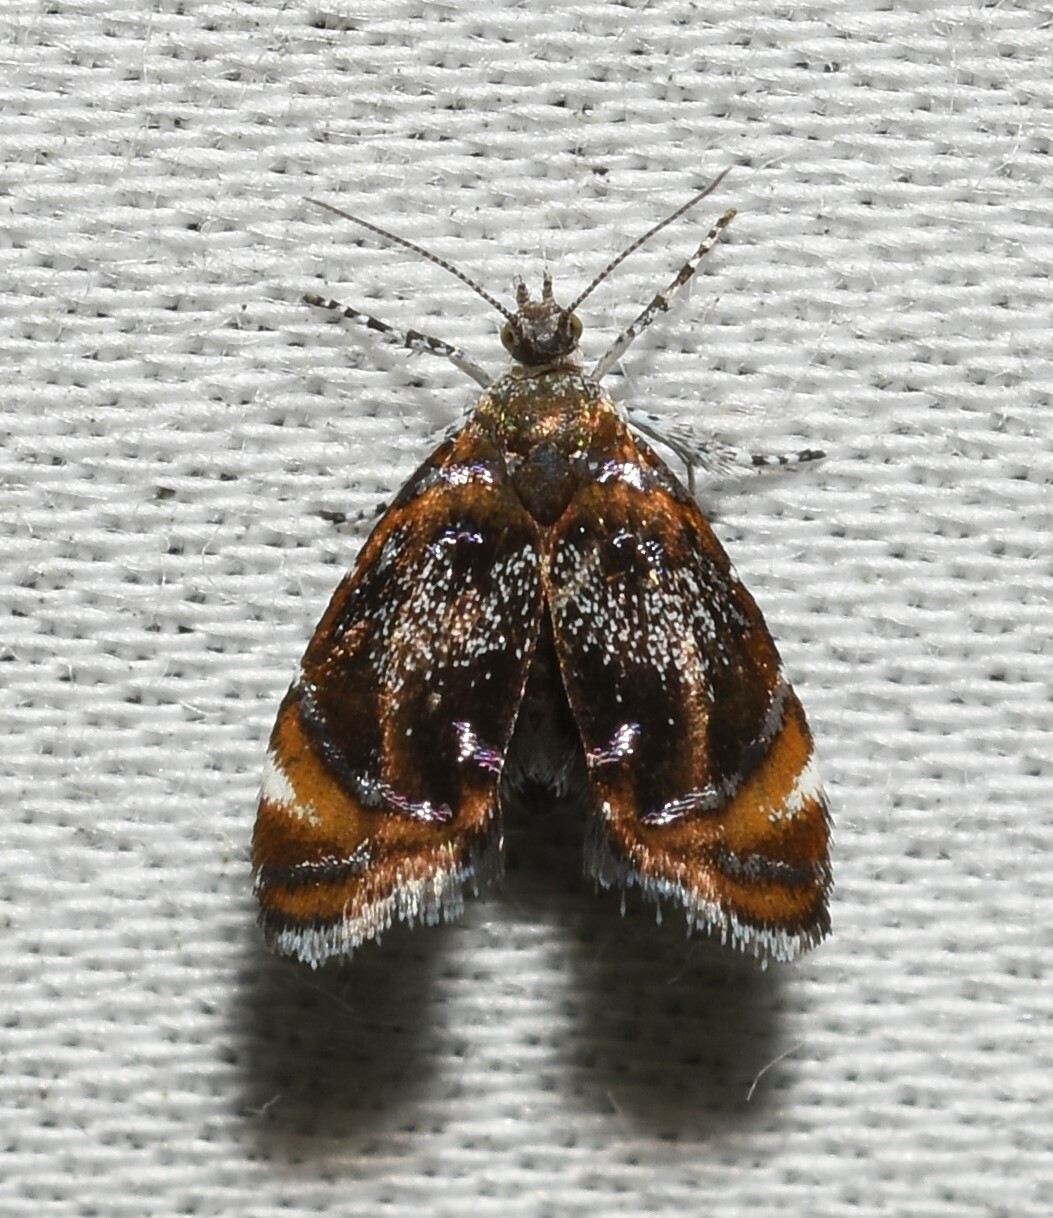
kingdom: Animalia
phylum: Arthropoda
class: Insecta
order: Lepidoptera
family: Choreutidae
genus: Prochoreutis
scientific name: Prochoreutis inflatella
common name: Skullcap skeletonizer moth
